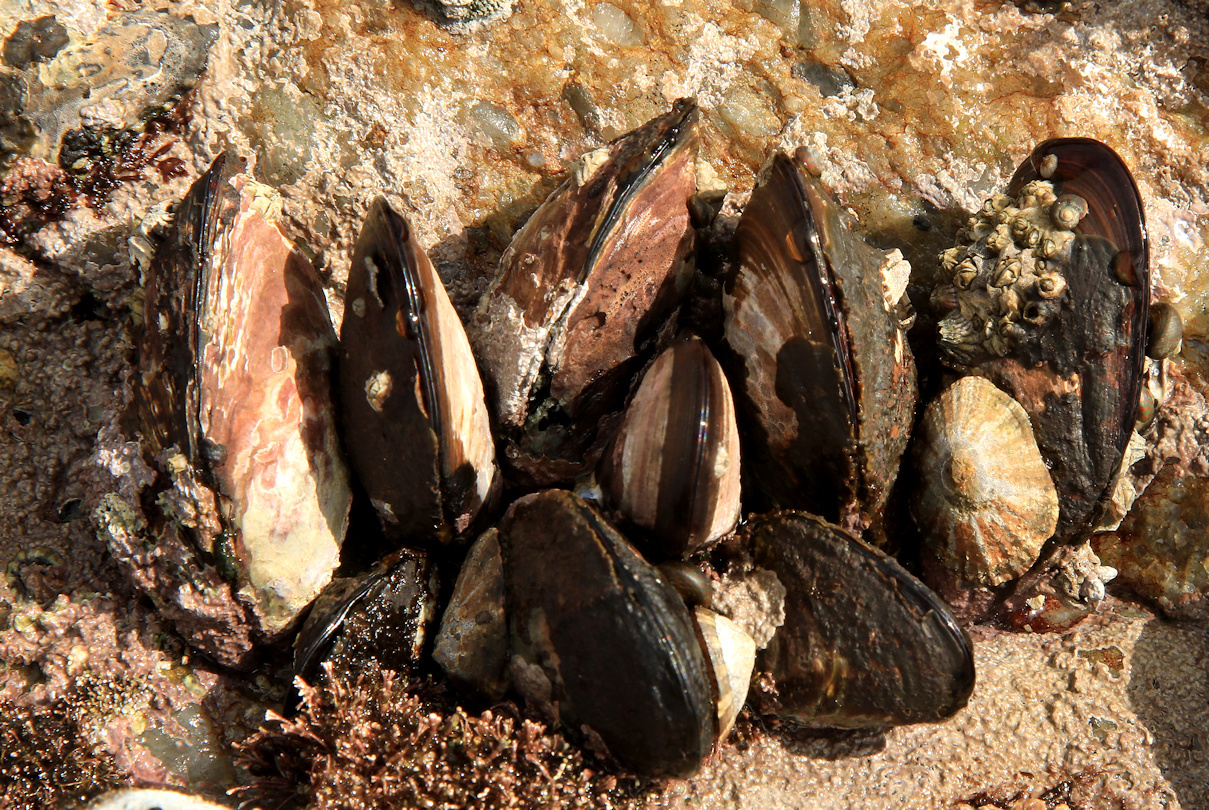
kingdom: Animalia
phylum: Mollusca
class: Bivalvia
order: Mytilida
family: Mytilidae
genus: Perna
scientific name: Perna perna
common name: Mexilhao mussel
